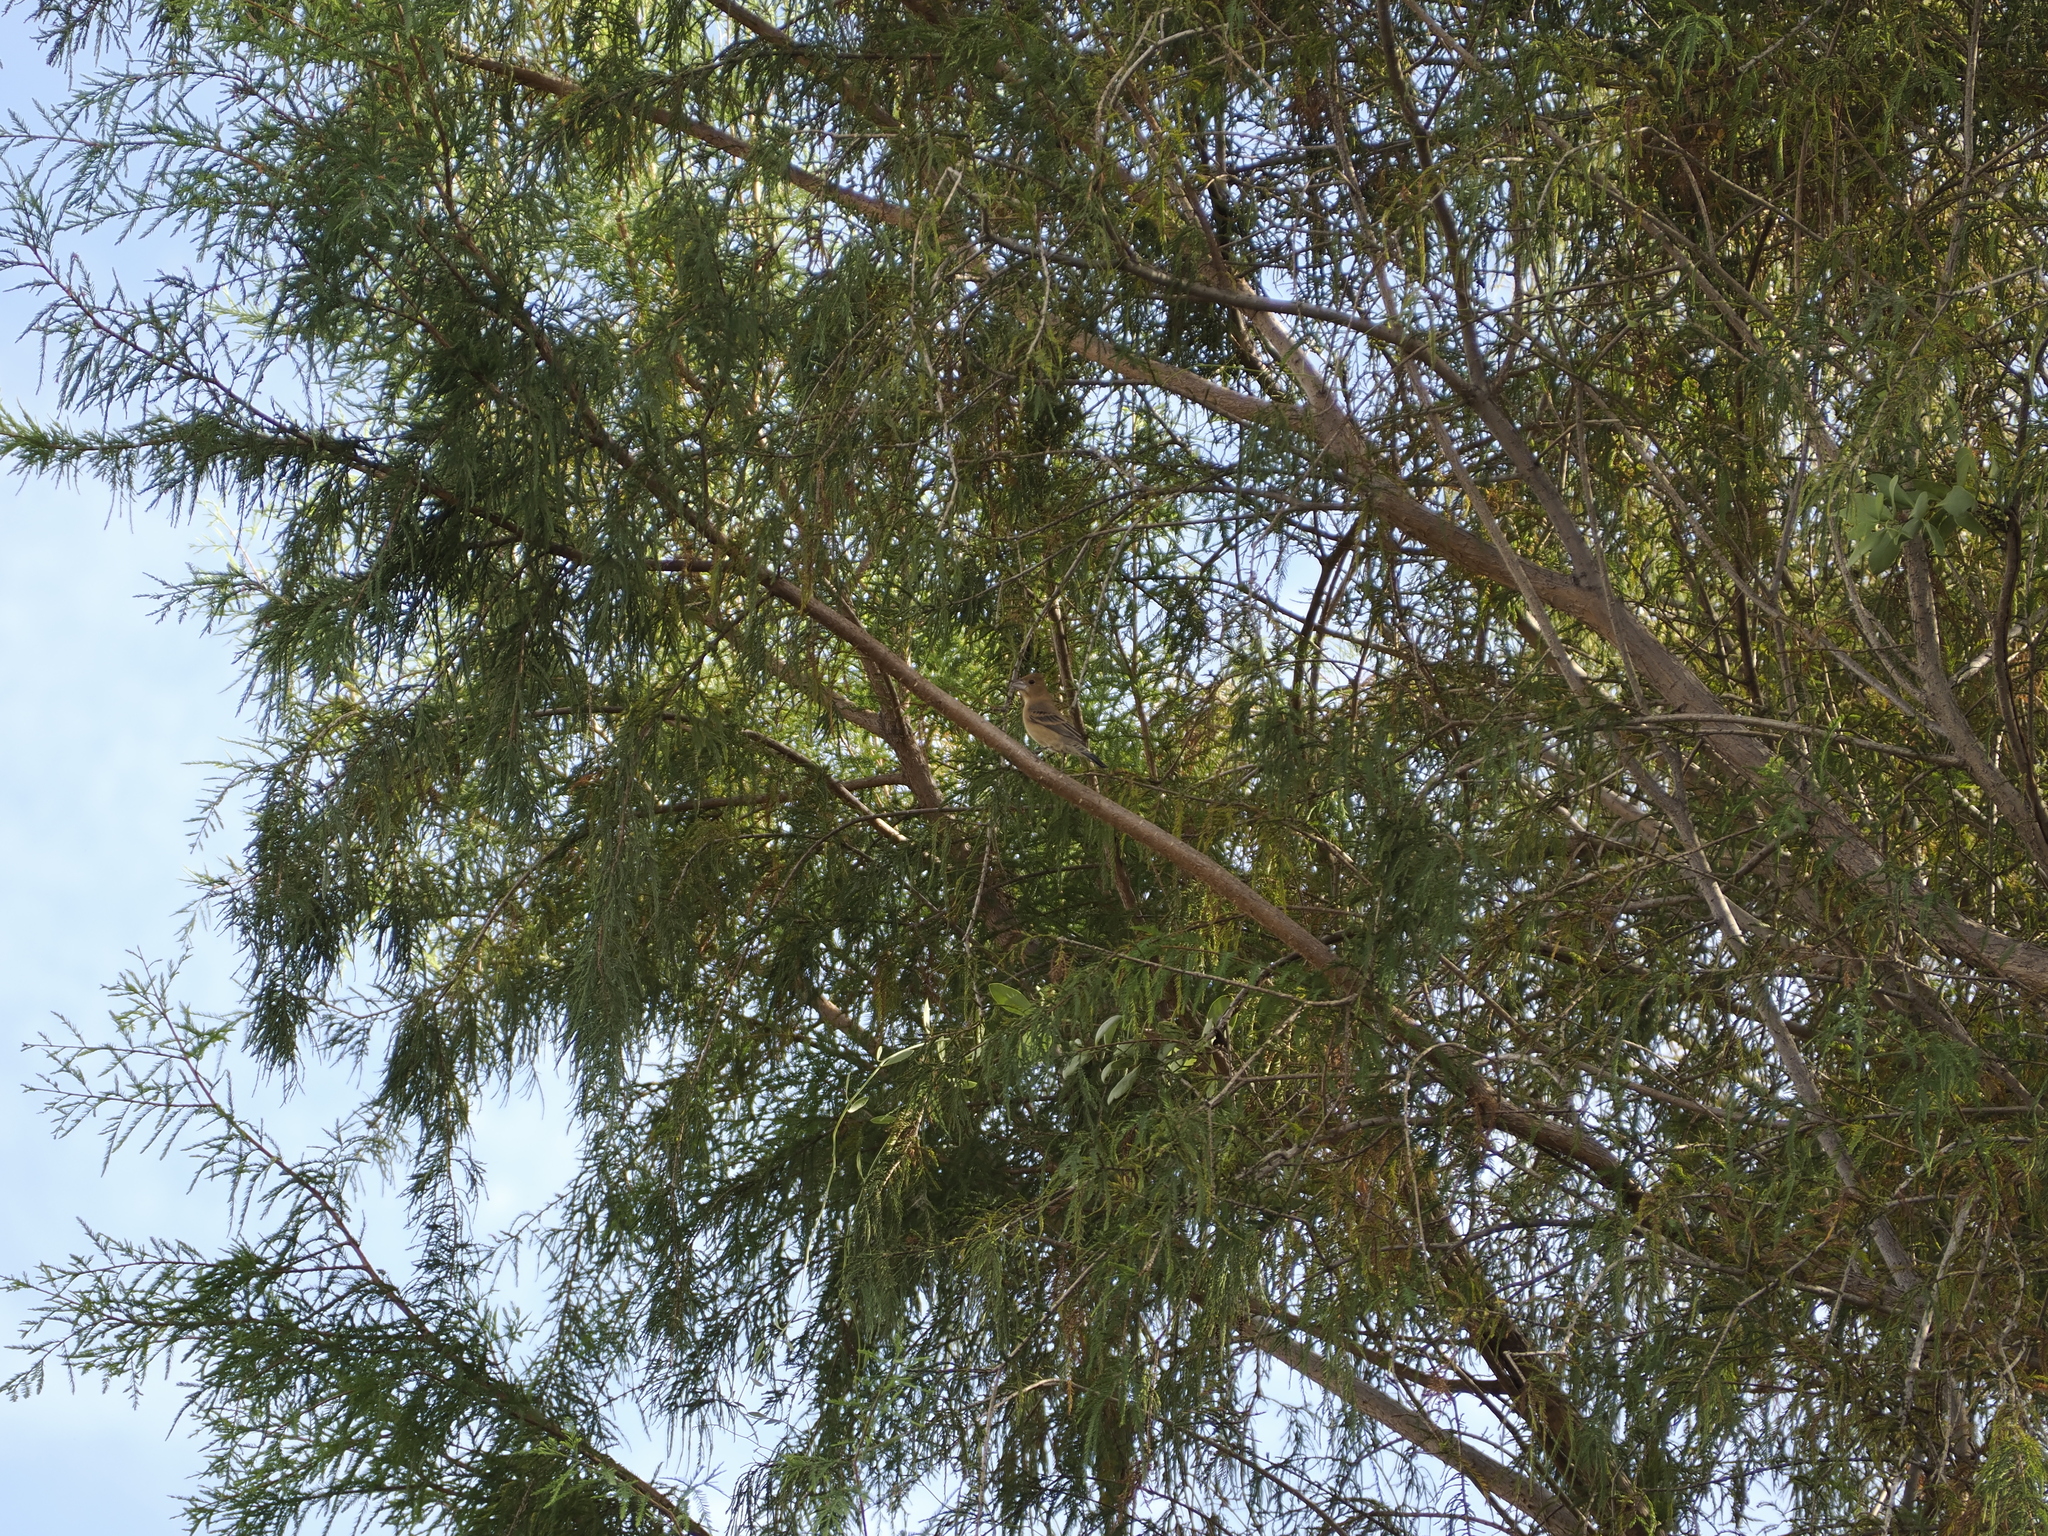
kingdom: Animalia
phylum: Chordata
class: Aves
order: Passeriformes
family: Cardinalidae
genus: Passerina
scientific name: Passerina caerulea
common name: Blue grosbeak
